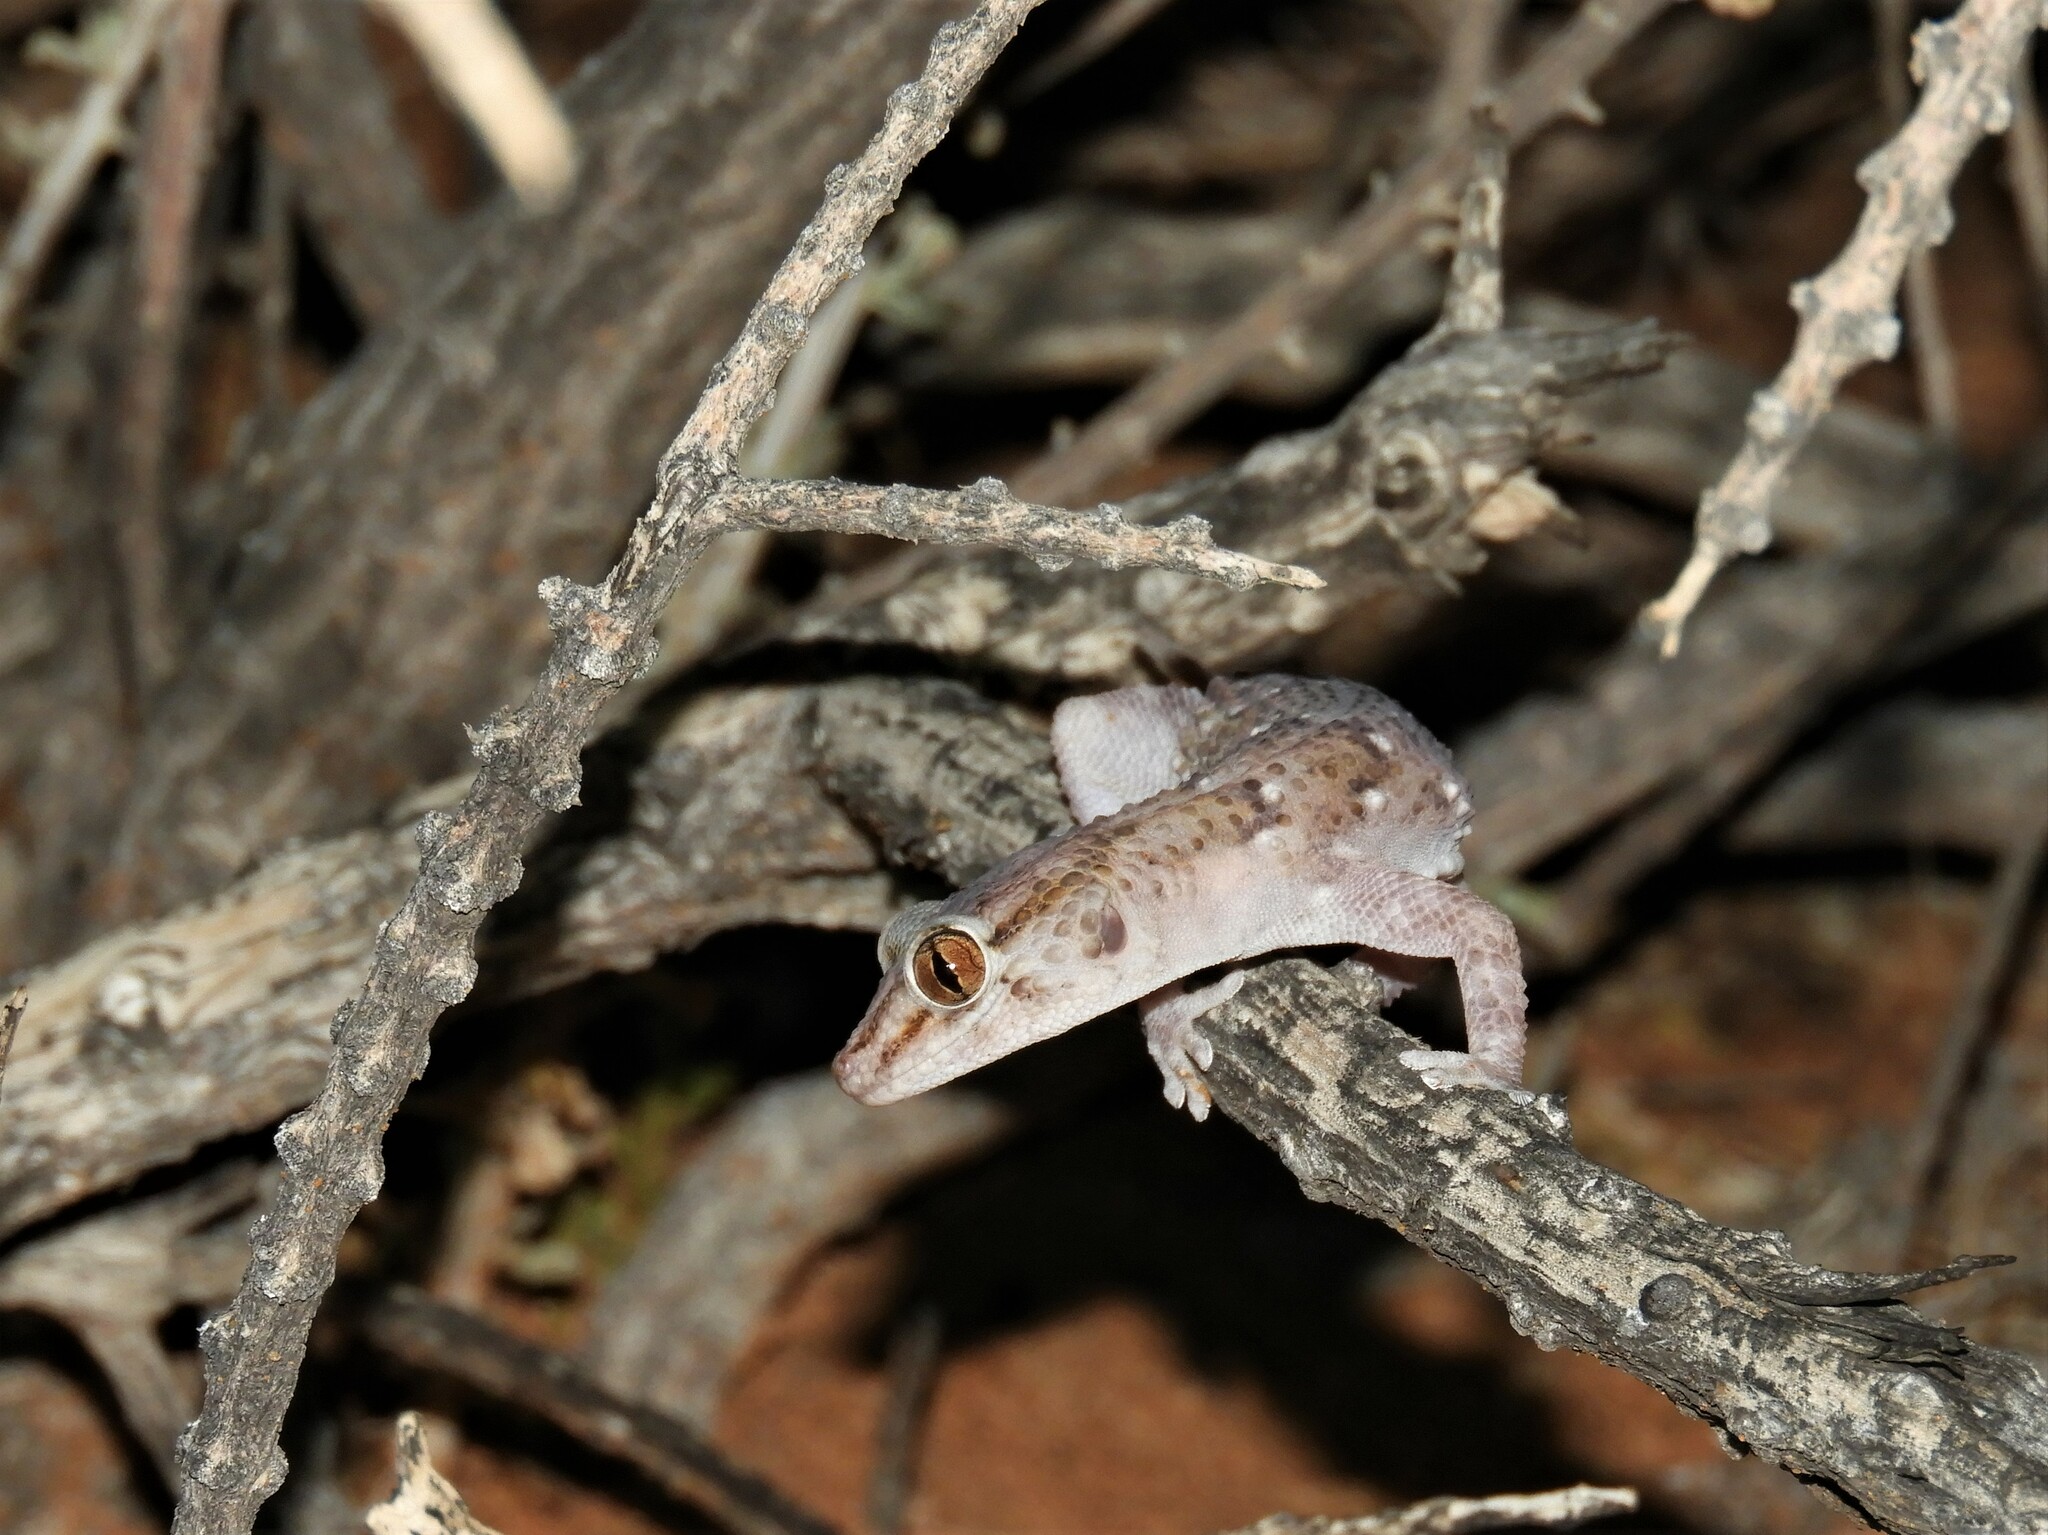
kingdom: Animalia
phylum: Chordata
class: Squamata
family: Gekkonidae
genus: Chondrodactylus
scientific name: Chondrodactylus laevigatus
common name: Fischer's thick-toed gecko
